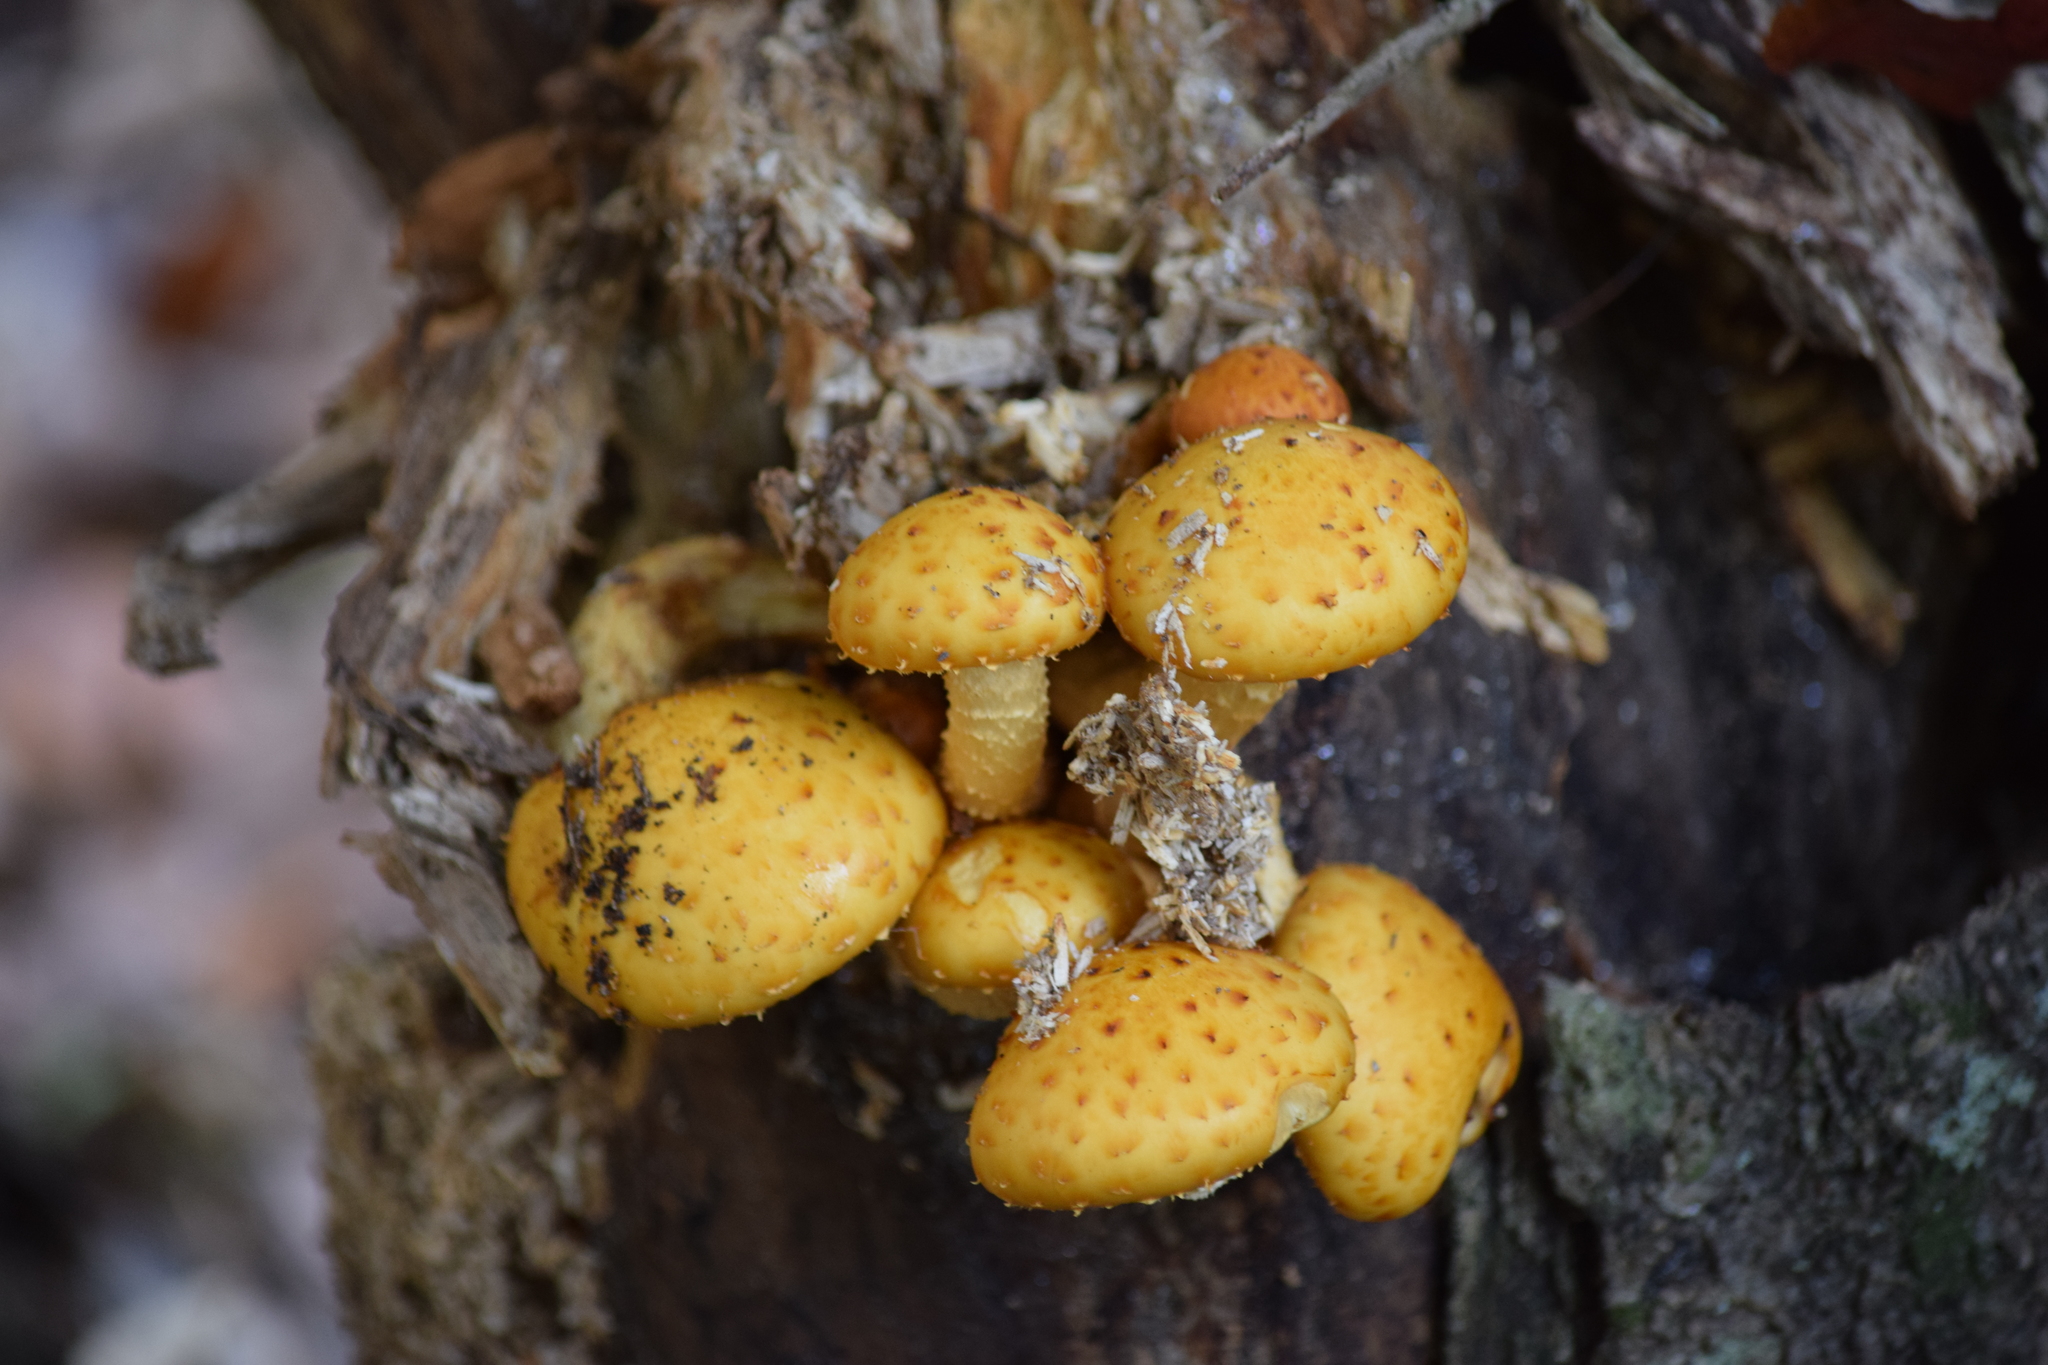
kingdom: Fungi
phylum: Basidiomycota
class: Agaricomycetes
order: Agaricales
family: Strophariaceae
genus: Pholiota
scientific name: Pholiota aurivella
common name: Golden scalycap
